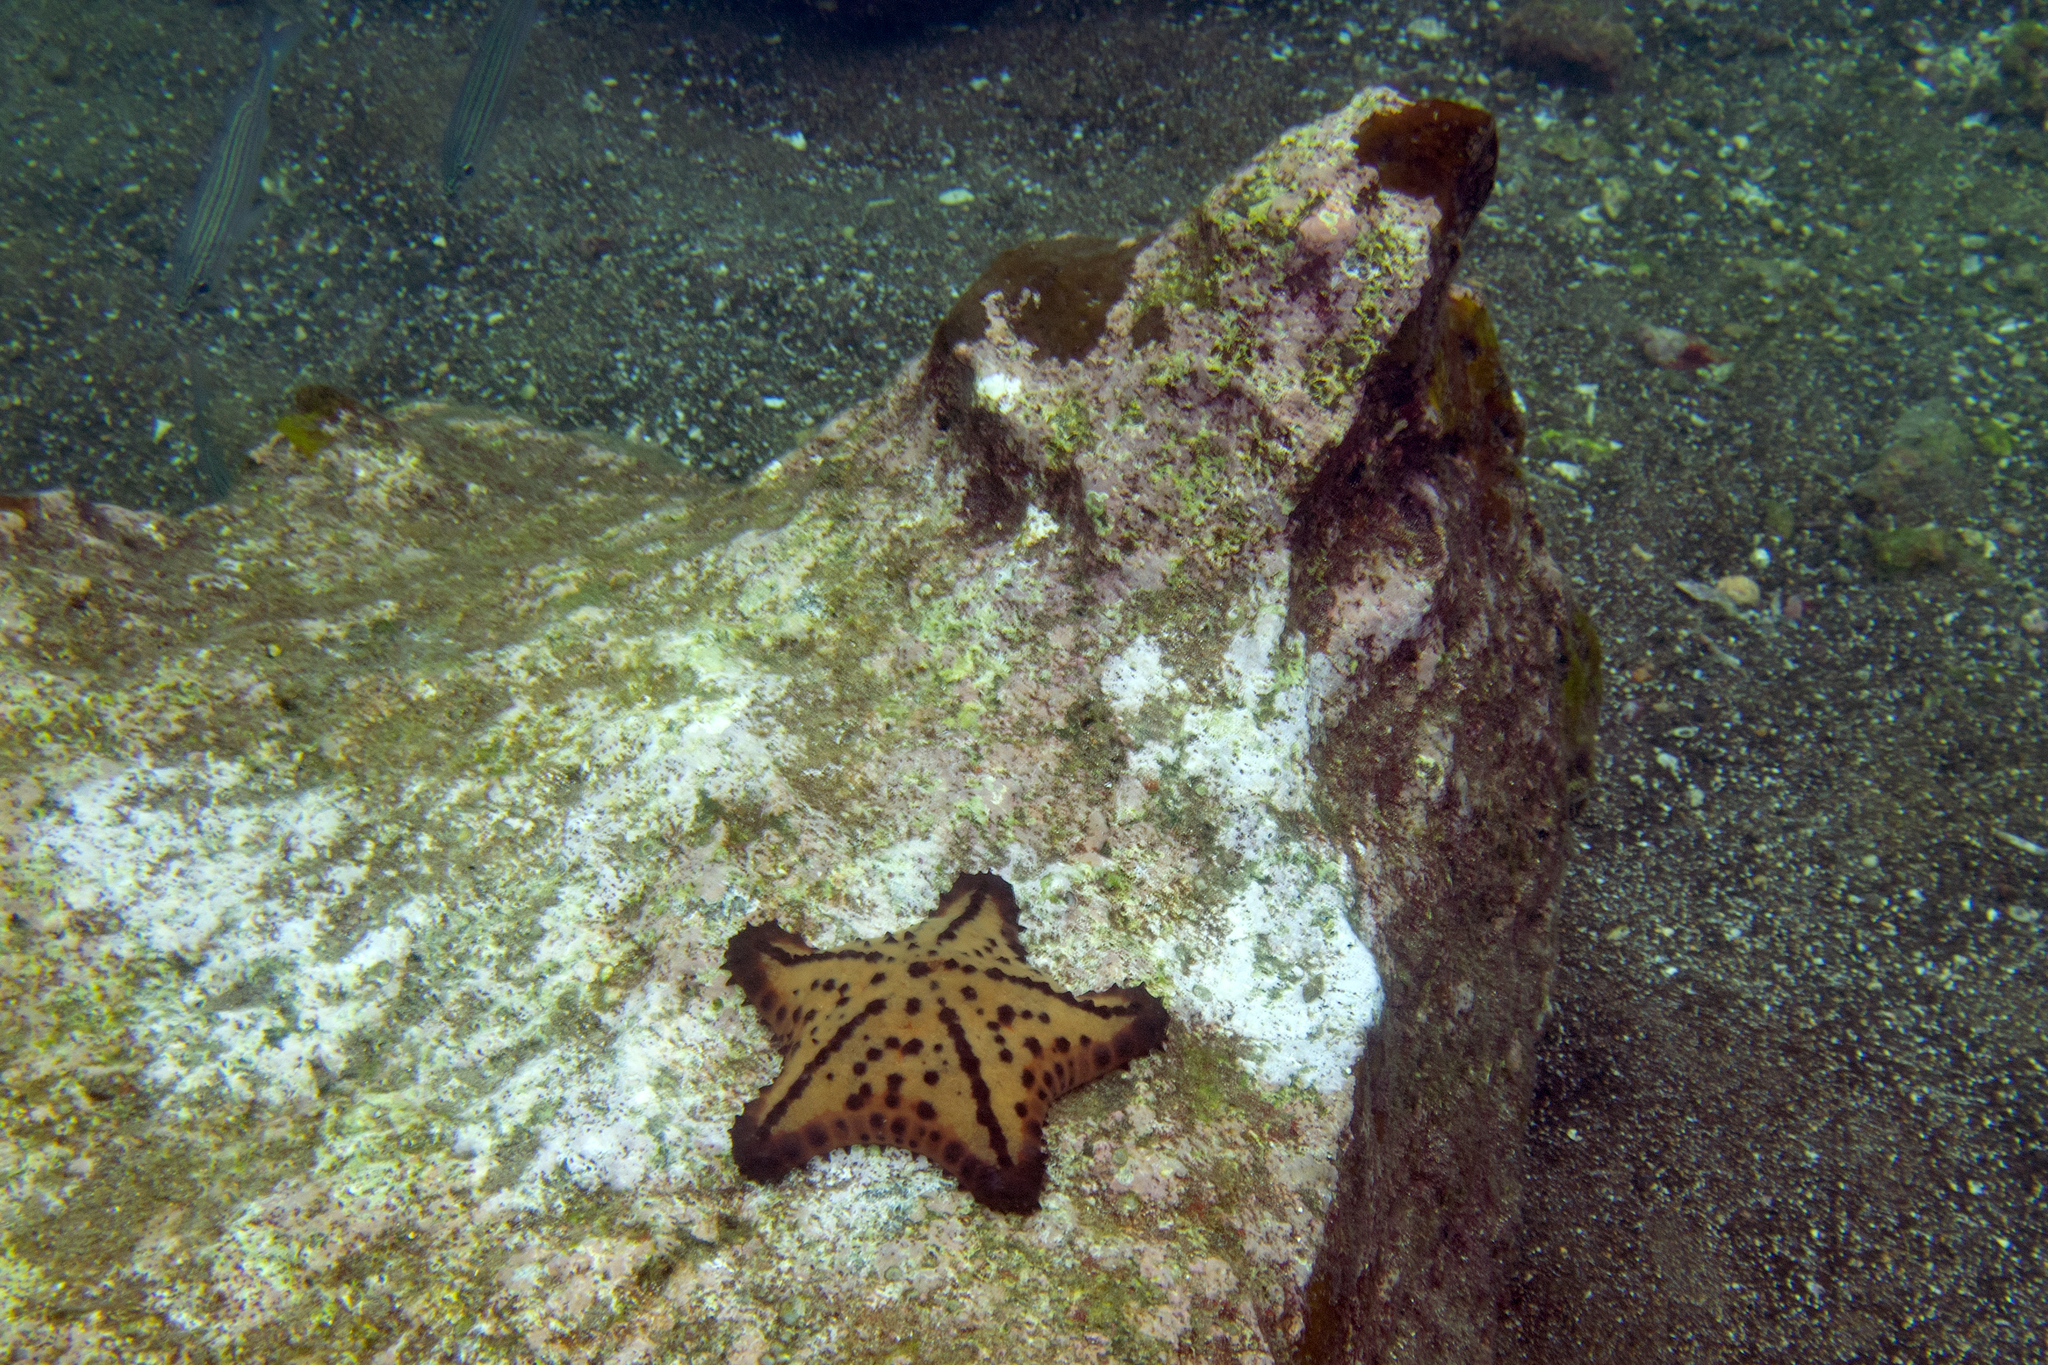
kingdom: Animalia
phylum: Echinodermata
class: Asteroidea
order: Valvatida
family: Oreasteridae
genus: Nidorellia
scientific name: Nidorellia armata
